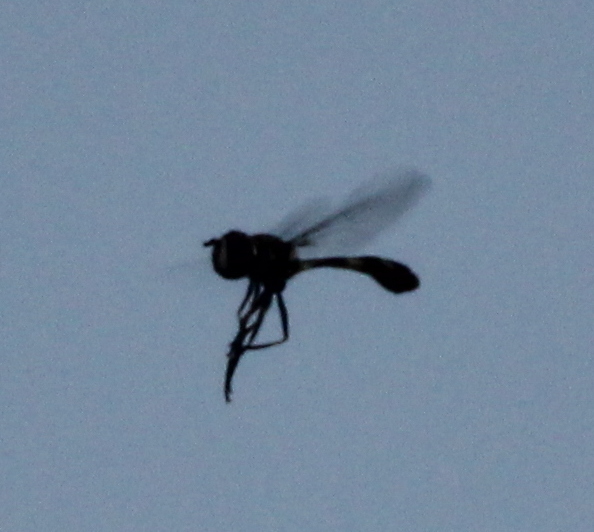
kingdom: Animalia
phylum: Arthropoda
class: Insecta
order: Diptera
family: Syrphidae
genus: Dioprosopa
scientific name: Dioprosopa clavatus
